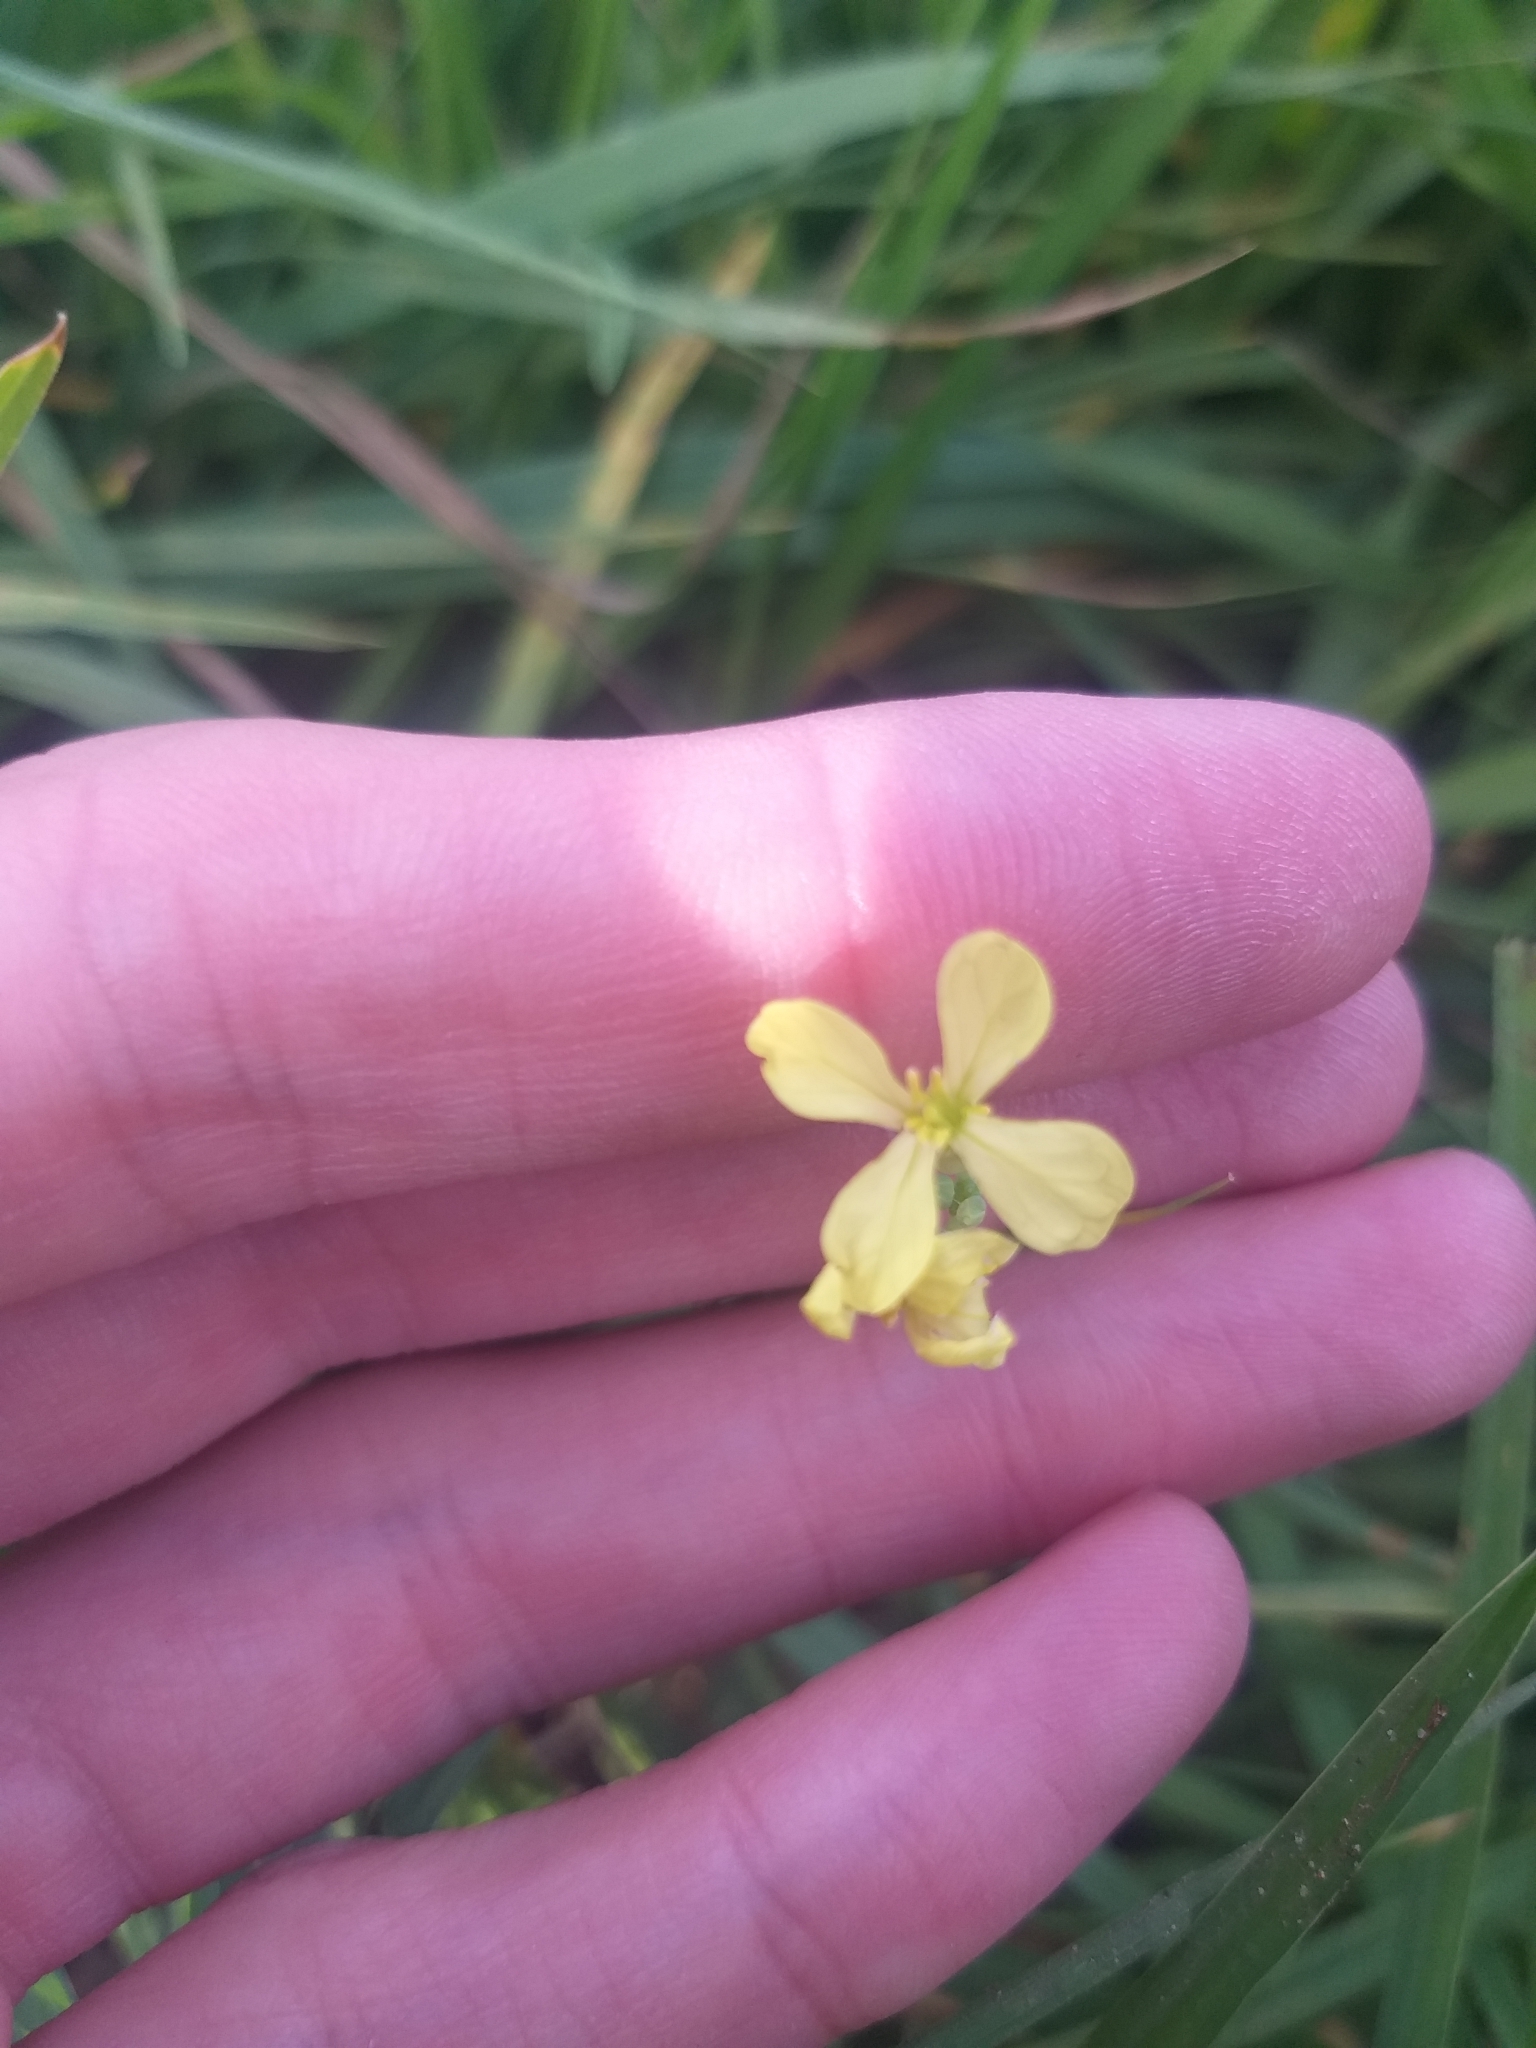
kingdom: Plantae
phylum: Tracheophyta
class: Magnoliopsida
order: Brassicales
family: Brassicaceae
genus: Raphanus
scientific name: Raphanus raphanistrum
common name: Wild radish
